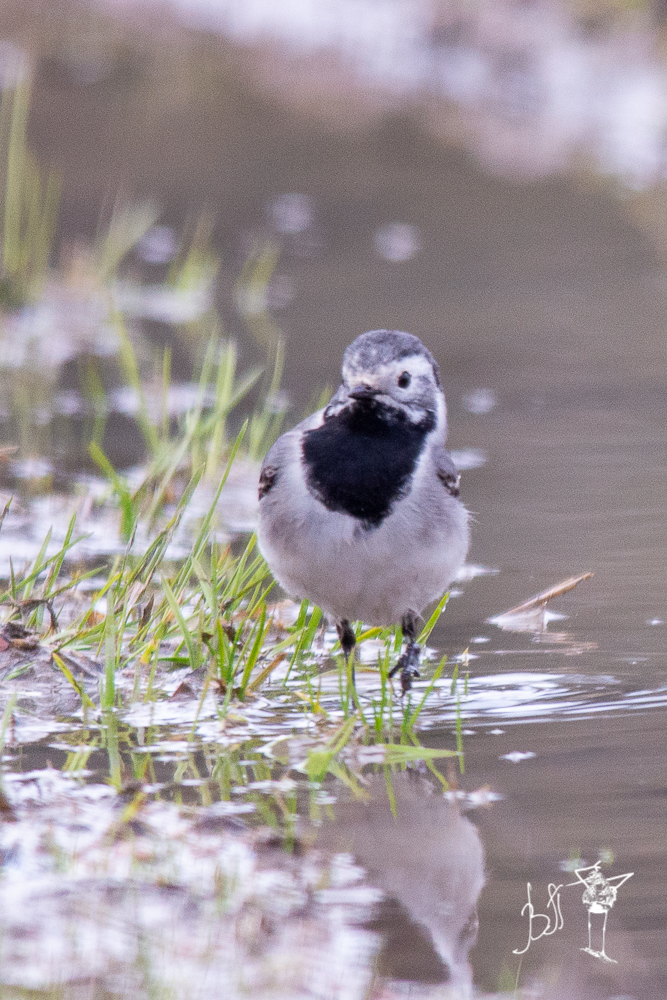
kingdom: Animalia
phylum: Chordata
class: Aves
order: Passeriformes
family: Motacillidae
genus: Motacilla
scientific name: Motacilla alba
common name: White wagtail
